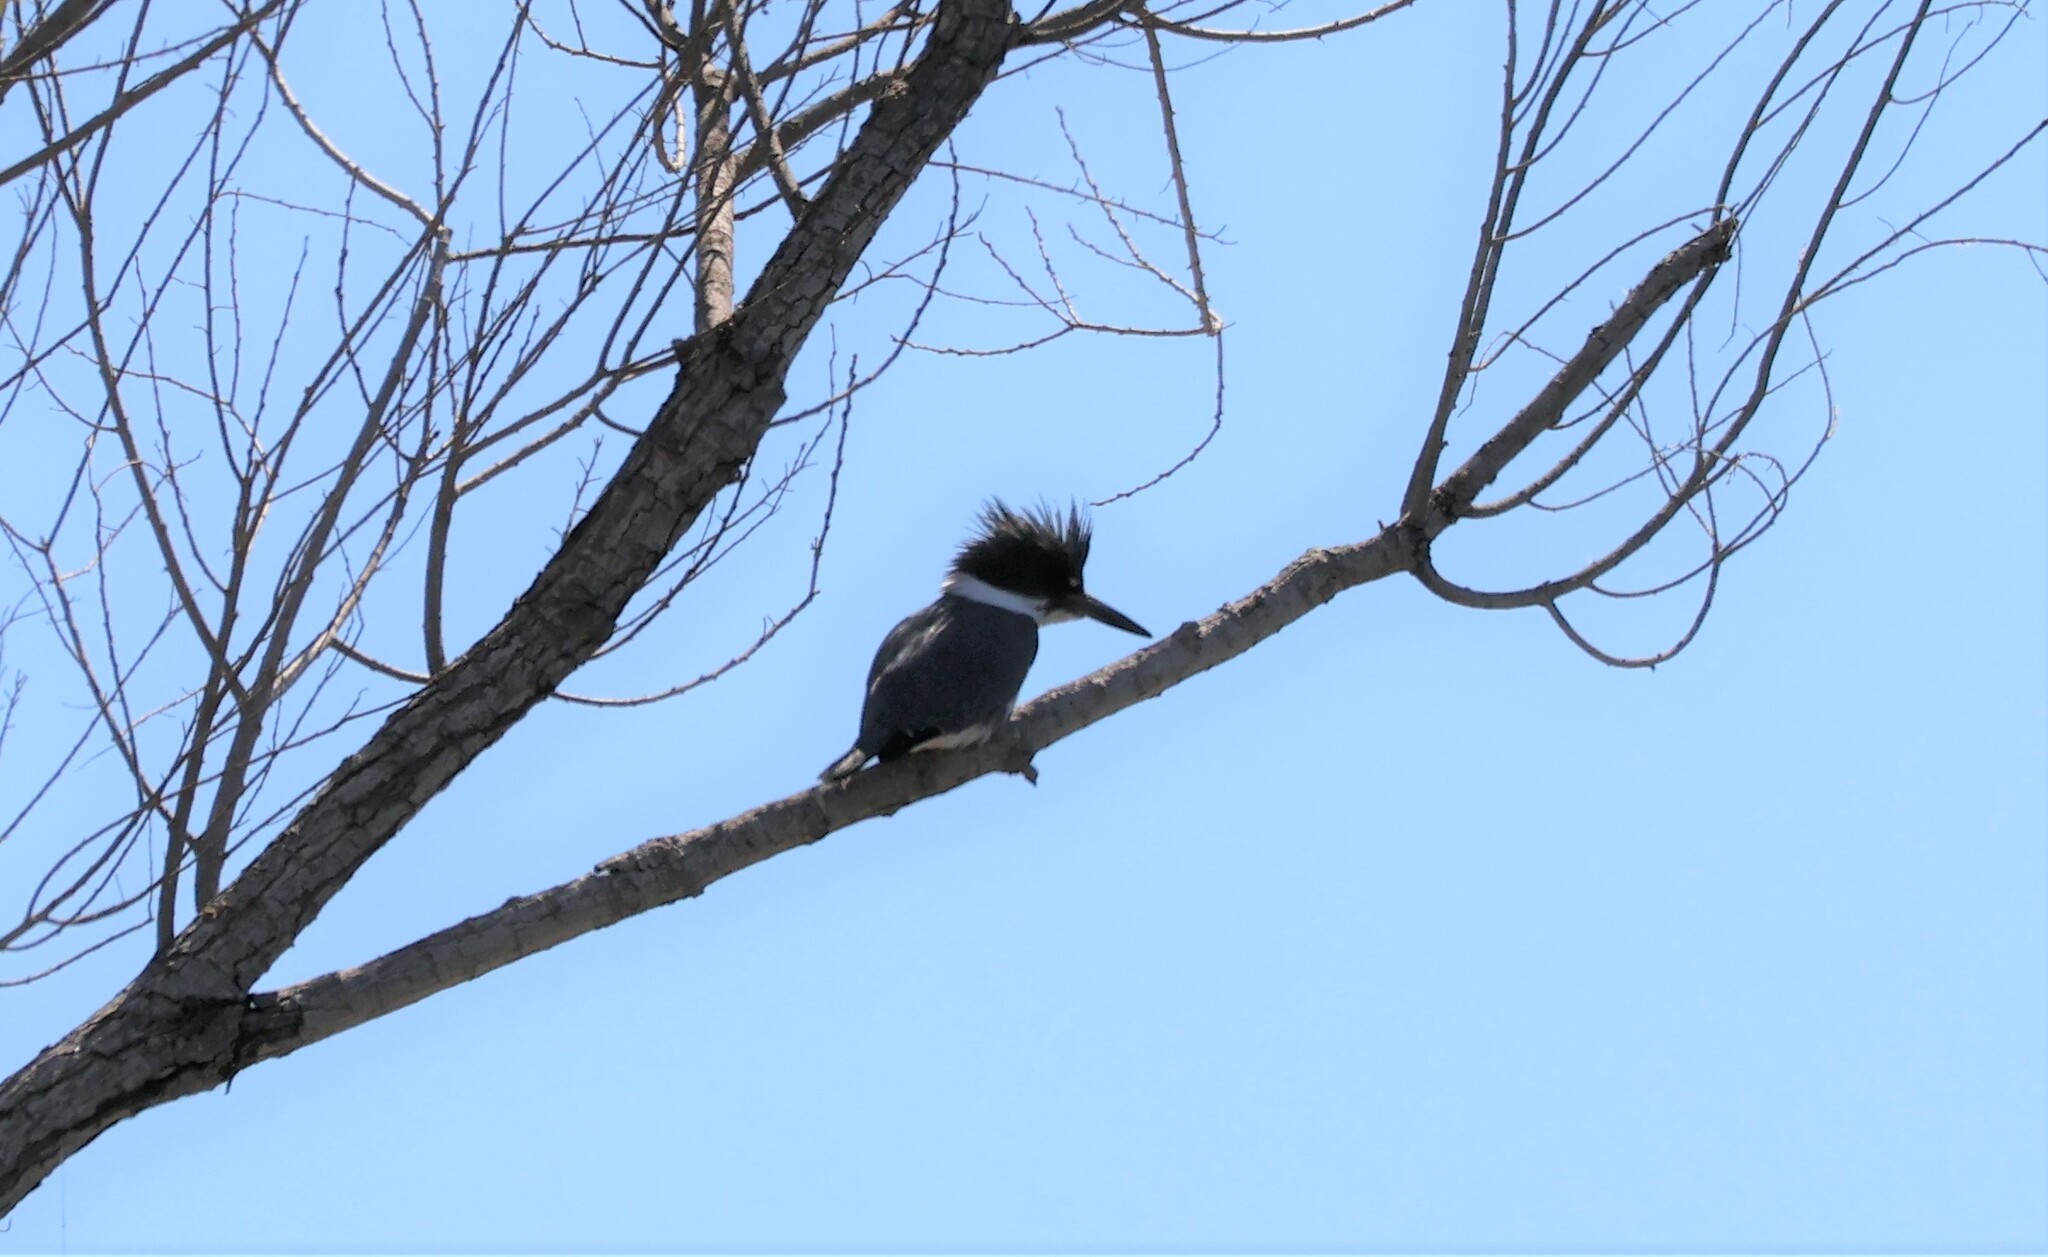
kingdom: Animalia
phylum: Chordata
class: Aves
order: Coraciiformes
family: Alcedinidae
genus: Megaceryle
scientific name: Megaceryle alcyon
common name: Belted kingfisher
